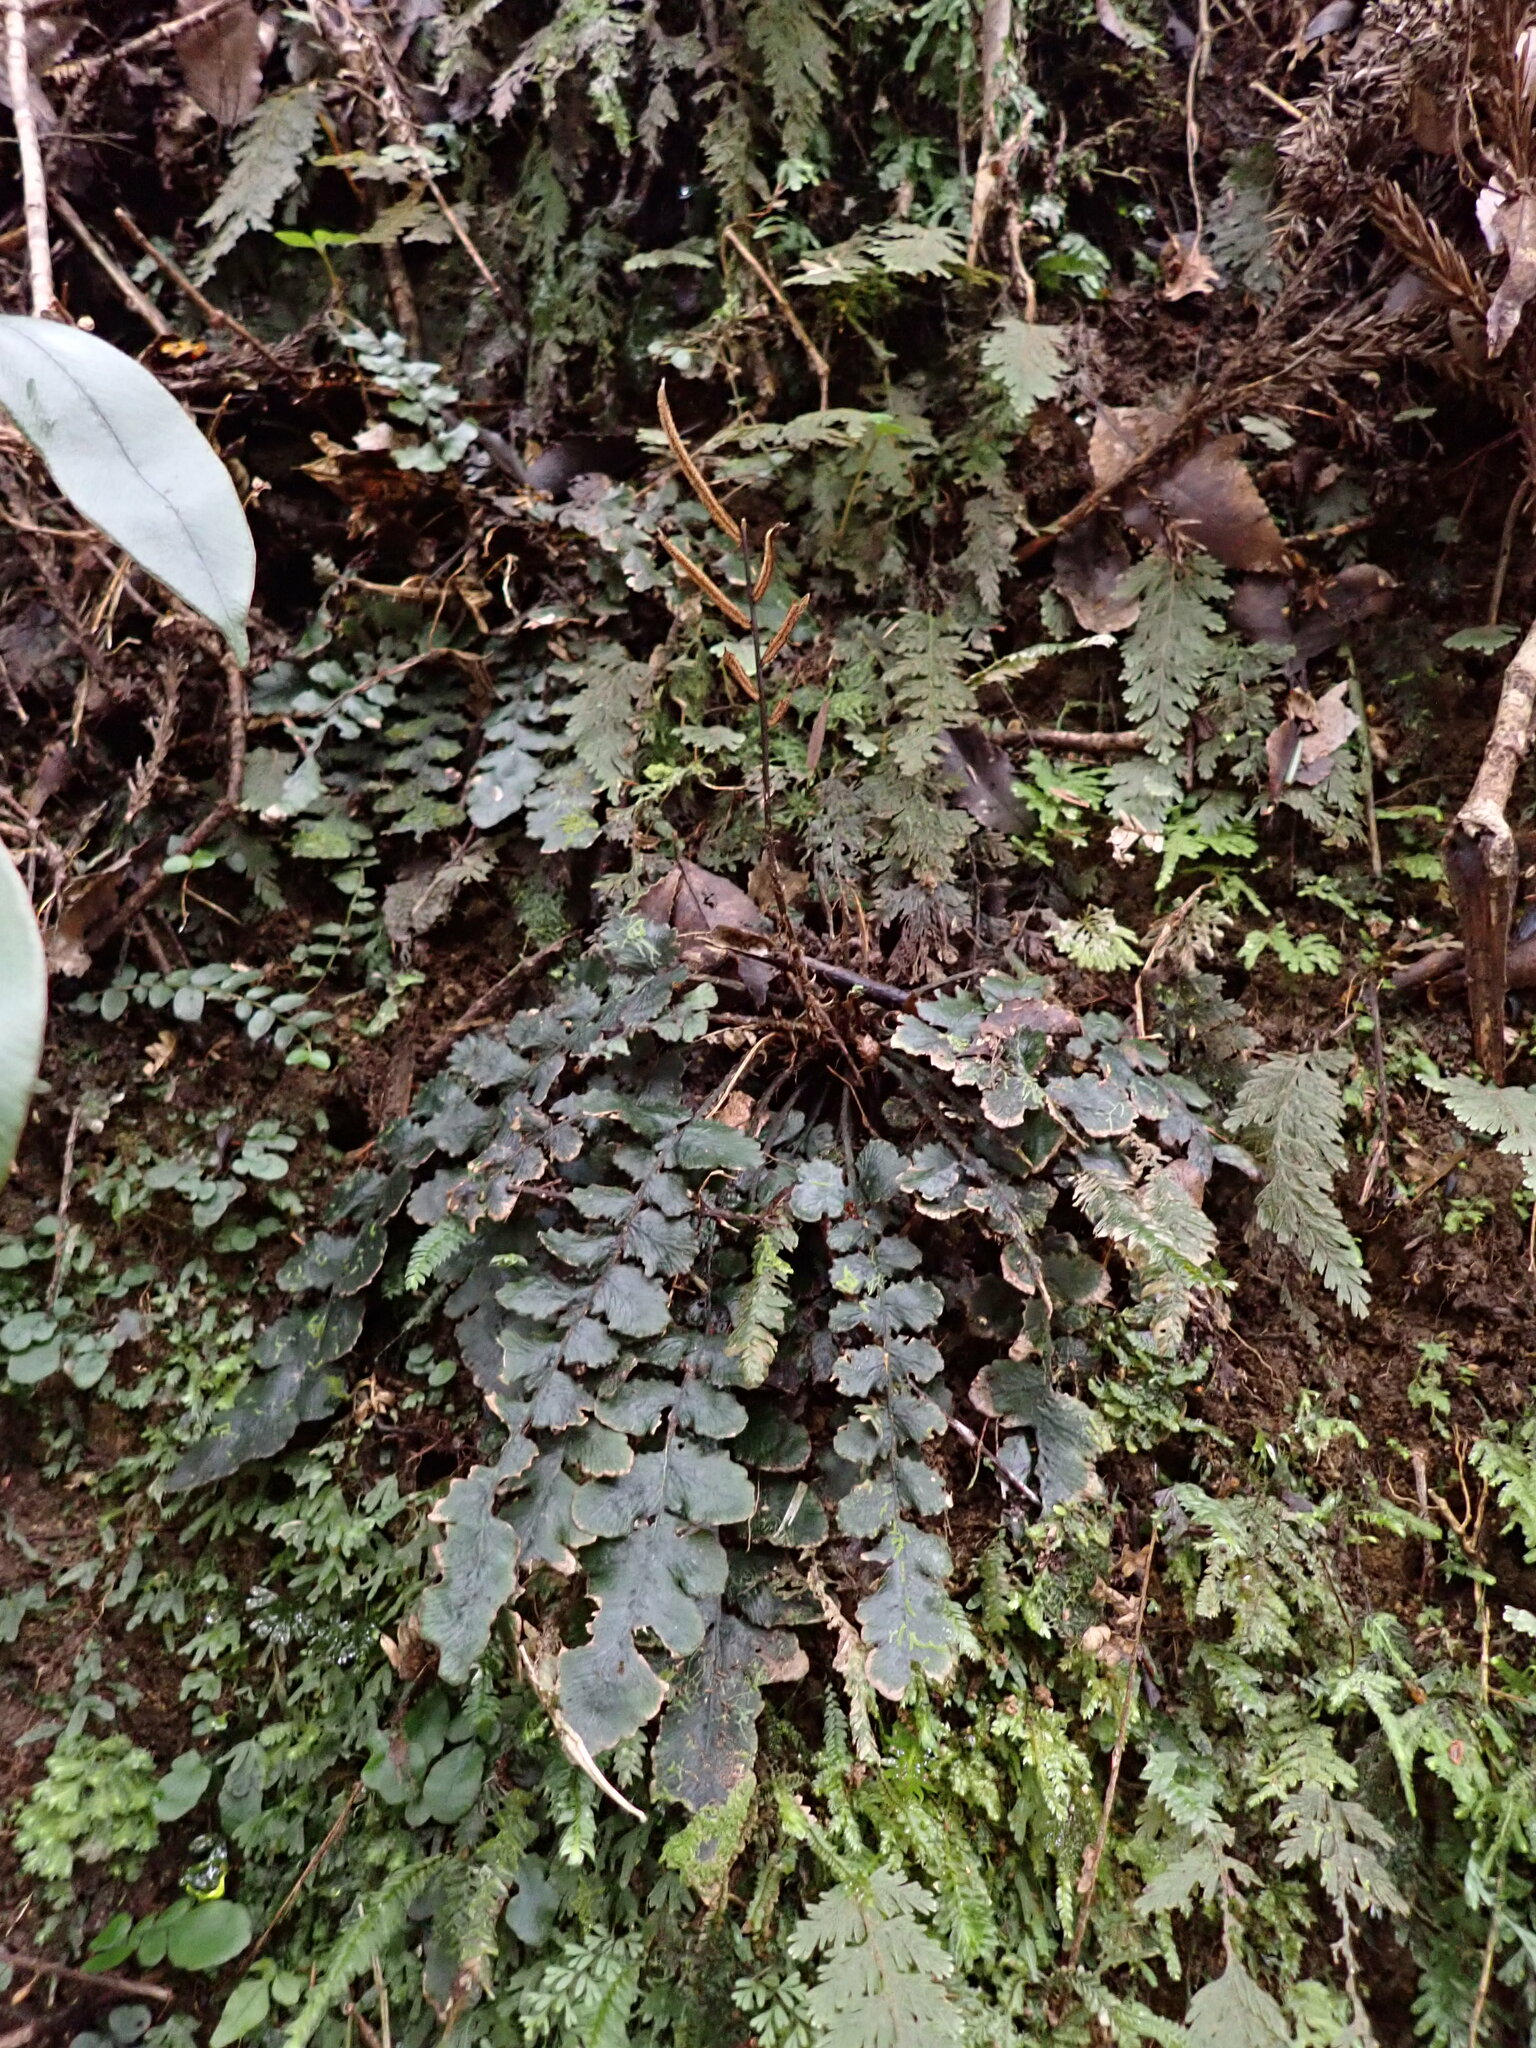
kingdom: Plantae
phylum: Tracheophyta
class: Polypodiopsida
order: Polypodiales
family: Blechnaceae
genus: Cranfillia
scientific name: Cranfillia nigra
